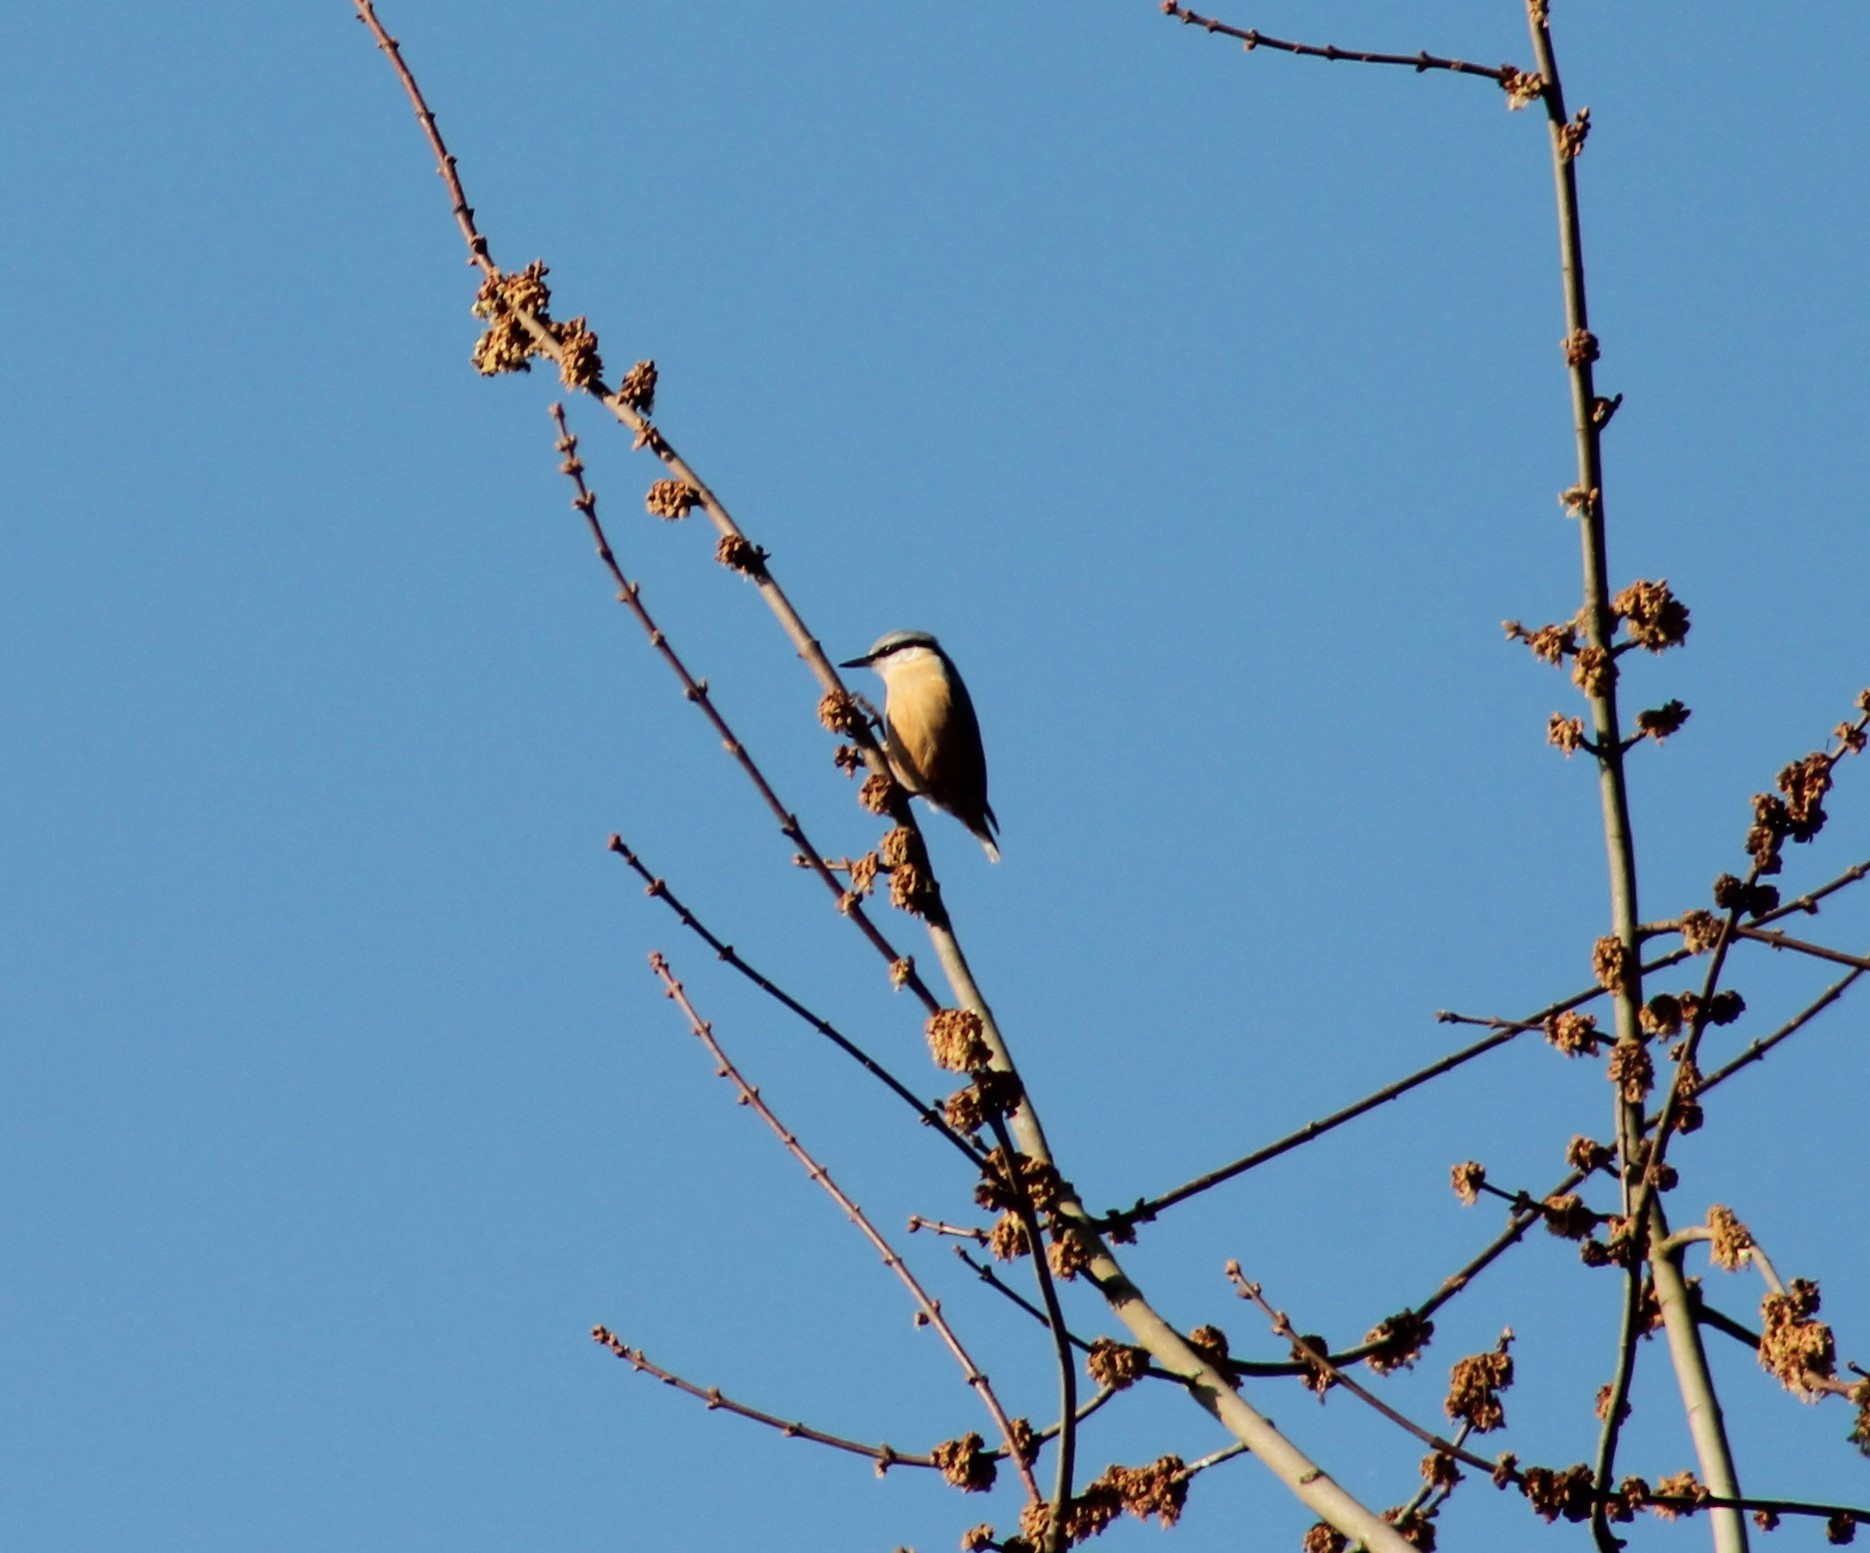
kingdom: Animalia
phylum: Chordata
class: Aves
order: Passeriformes
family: Sittidae
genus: Sitta
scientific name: Sitta europaea
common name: Eurasian nuthatch
